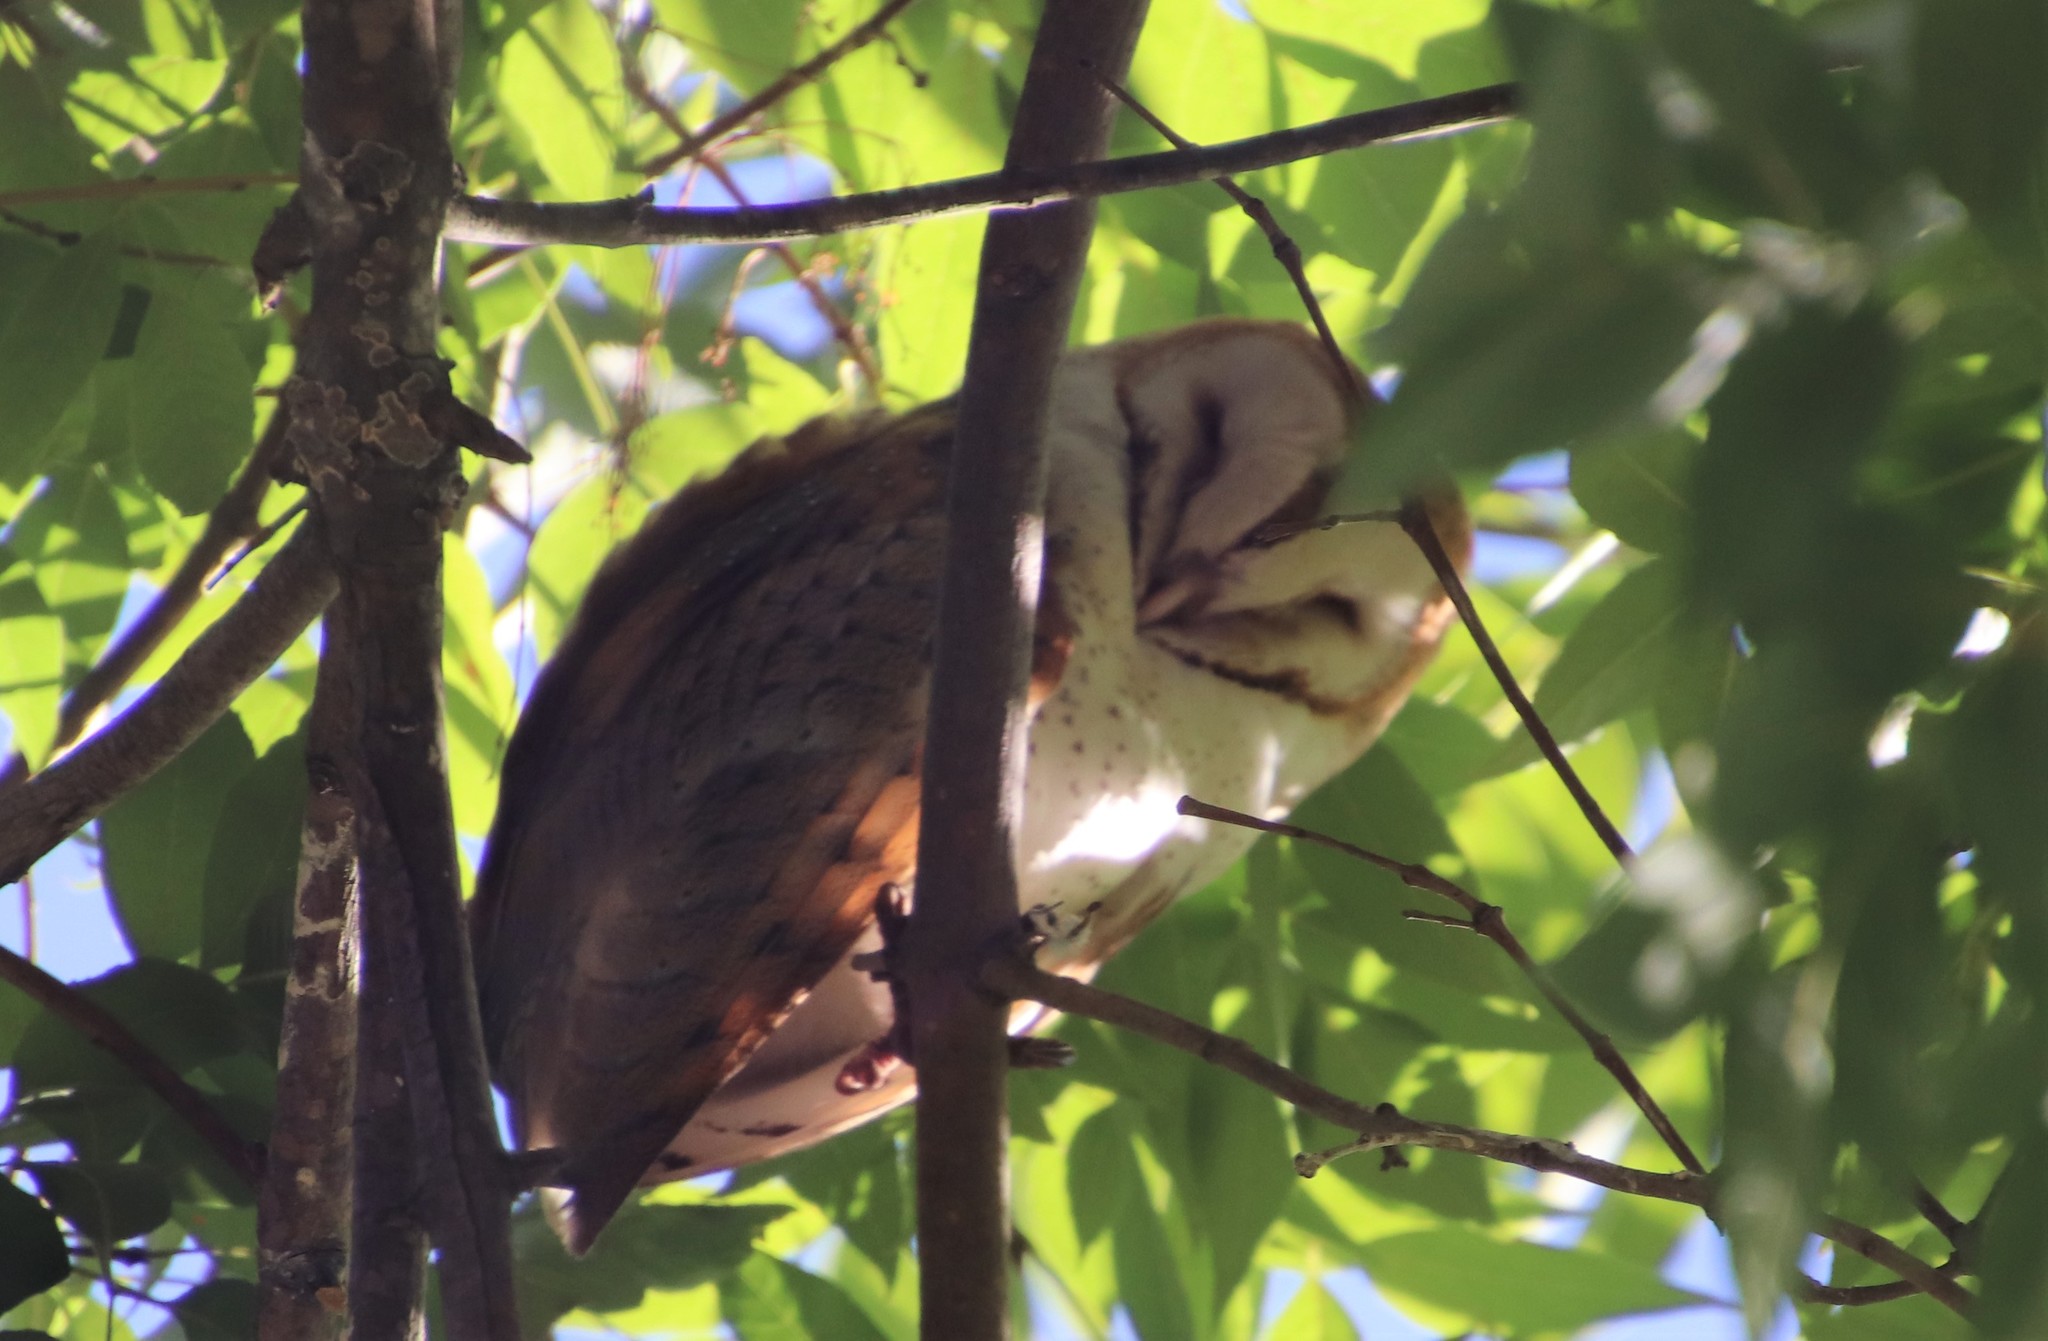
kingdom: Animalia
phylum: Chordata
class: Aves
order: Strigiformes
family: Tytonidae
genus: Tyto
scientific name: Tyto alba
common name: Barn owl
